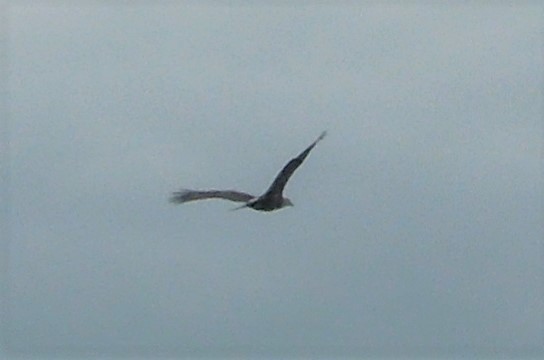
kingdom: Animalia
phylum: Chordata
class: Aves
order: Accipitriformes
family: Accipitridae
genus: Haliaeetus
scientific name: Haliaeetus leucocephalus
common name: Bald eagle
